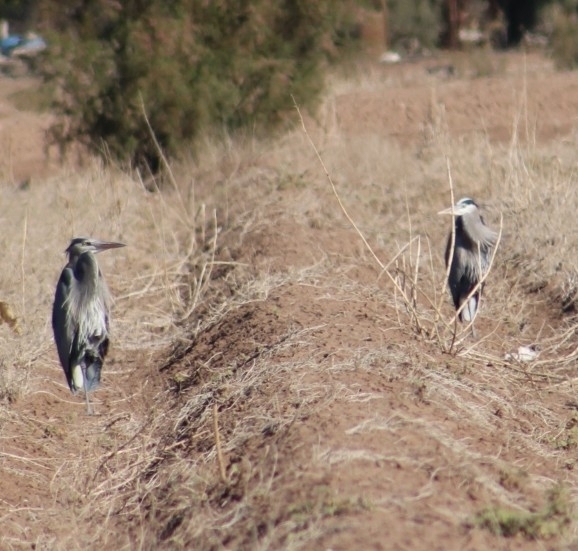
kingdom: Animalia
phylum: Chordata
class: Aves
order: Pelecaniformes
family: Ardeidae
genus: Ardea
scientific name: Ardea herodias
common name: Great blue heron
